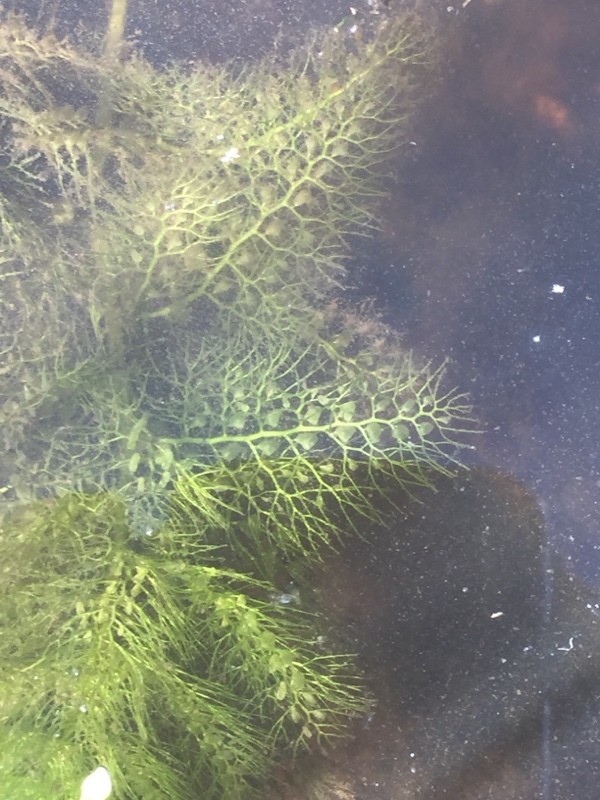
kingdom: Plantae
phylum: Tracheophyta
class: Magnoliopsida
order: Lamiales
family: Lentibulariaceae
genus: Utricularia
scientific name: Utricularia vulgaris
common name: Greater bladderwort
